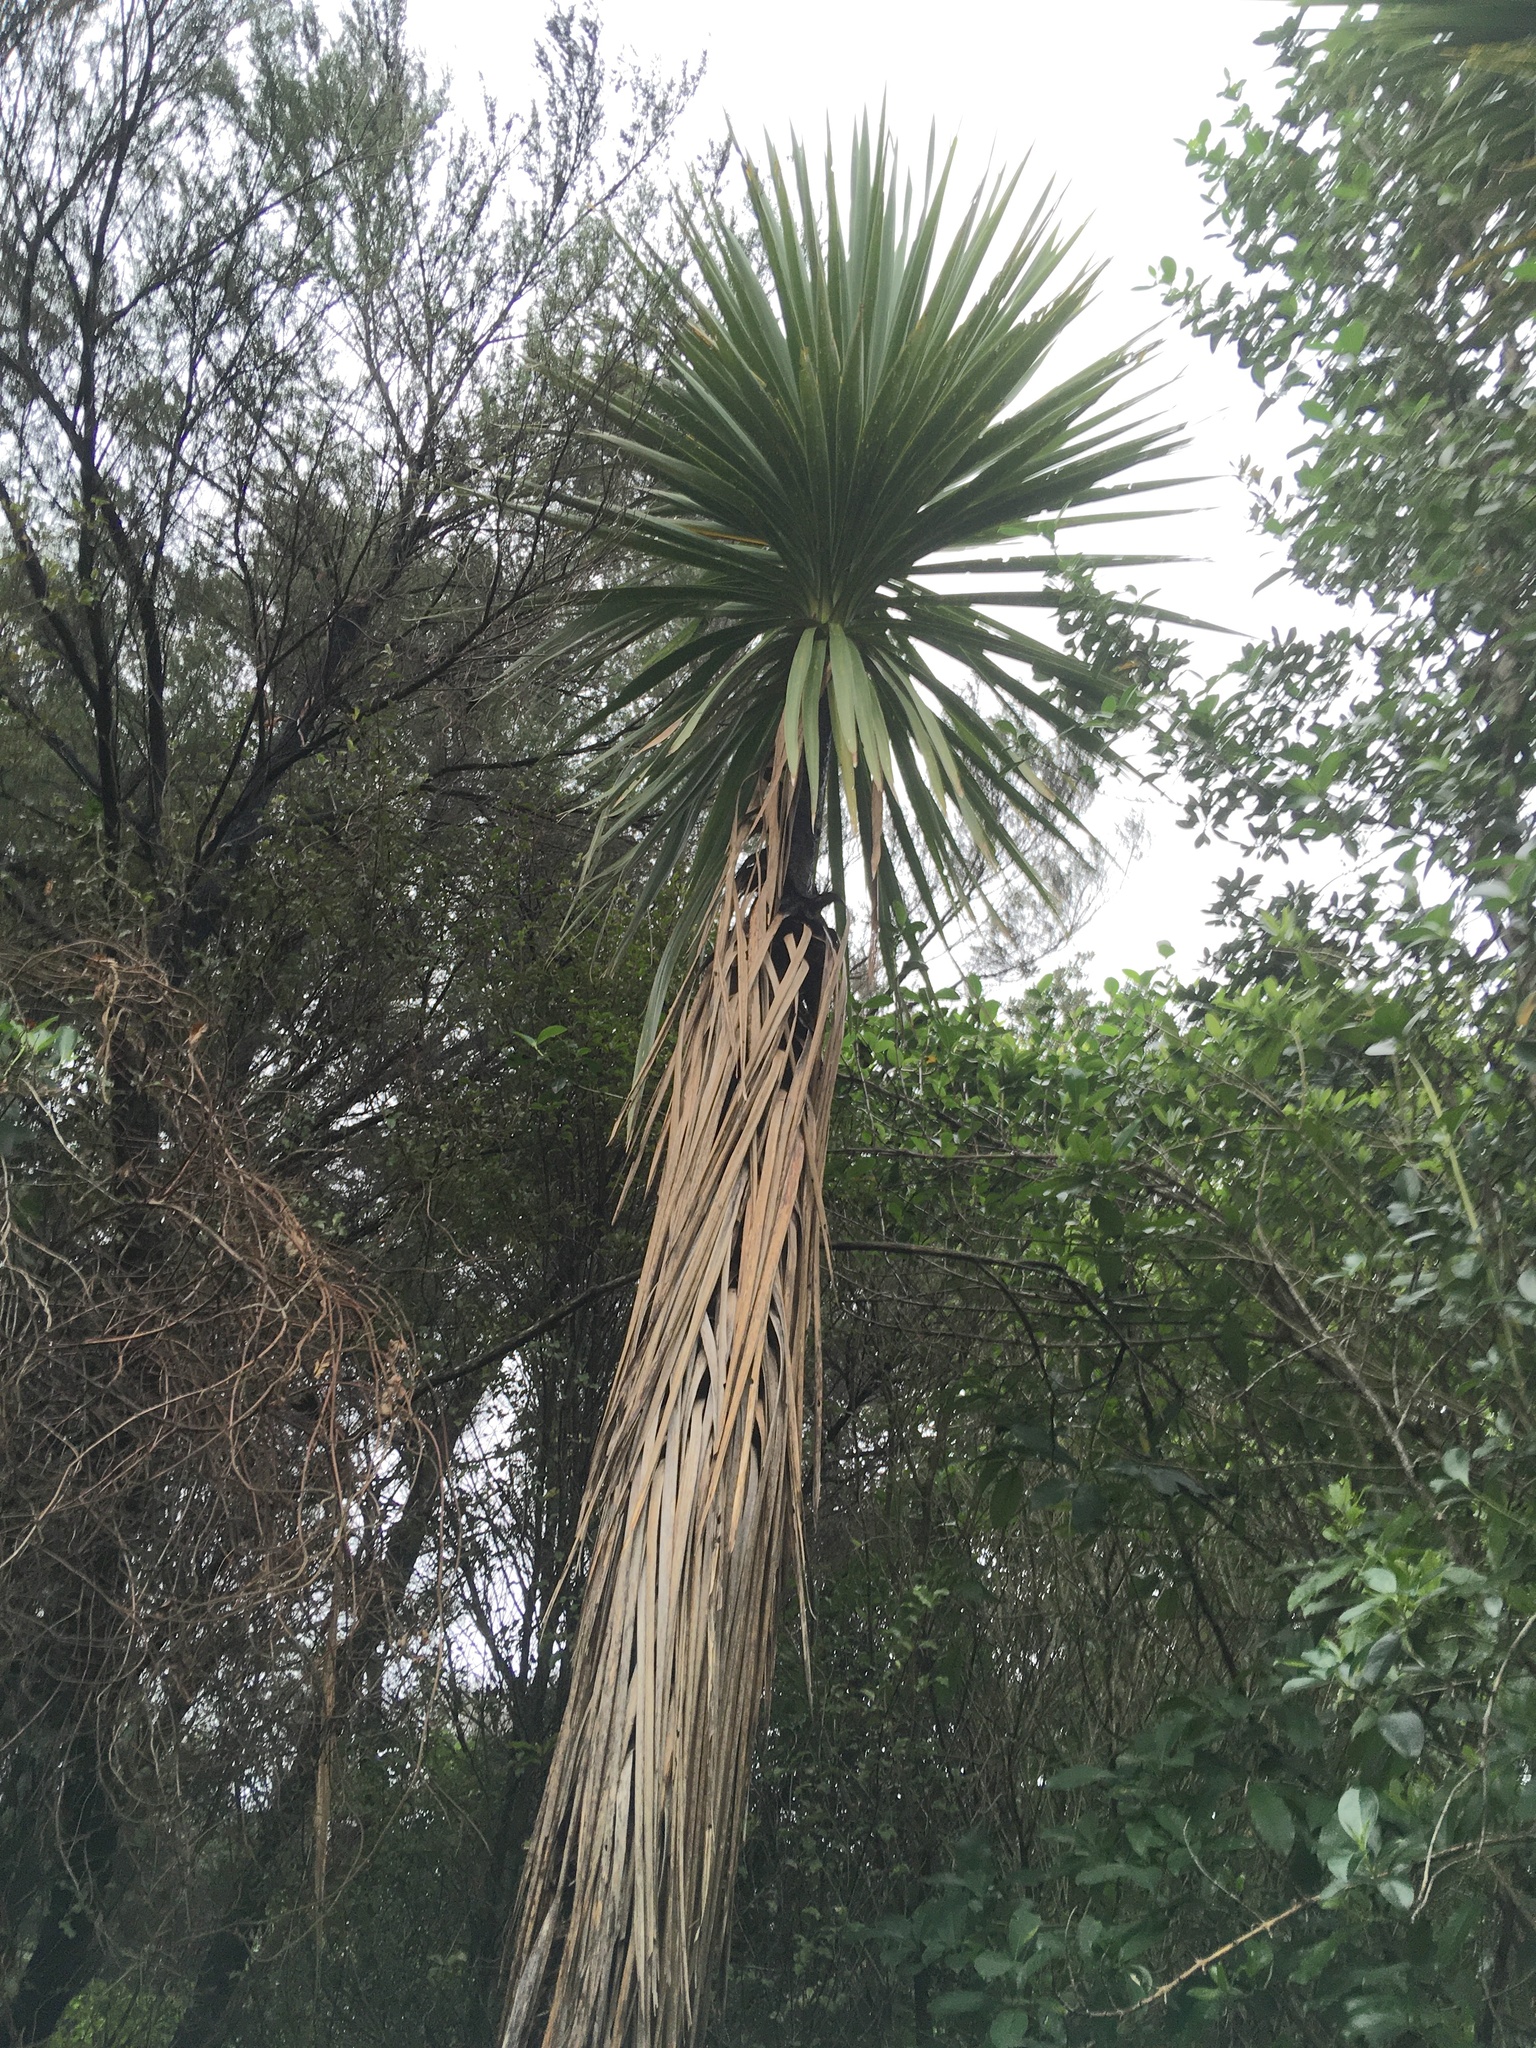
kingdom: Plantae
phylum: Tracheophyta
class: Liliopsida
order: Asparagales
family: Asparagaceae
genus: Cordyline
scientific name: Cordyline australis
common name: Cabbage-palm
